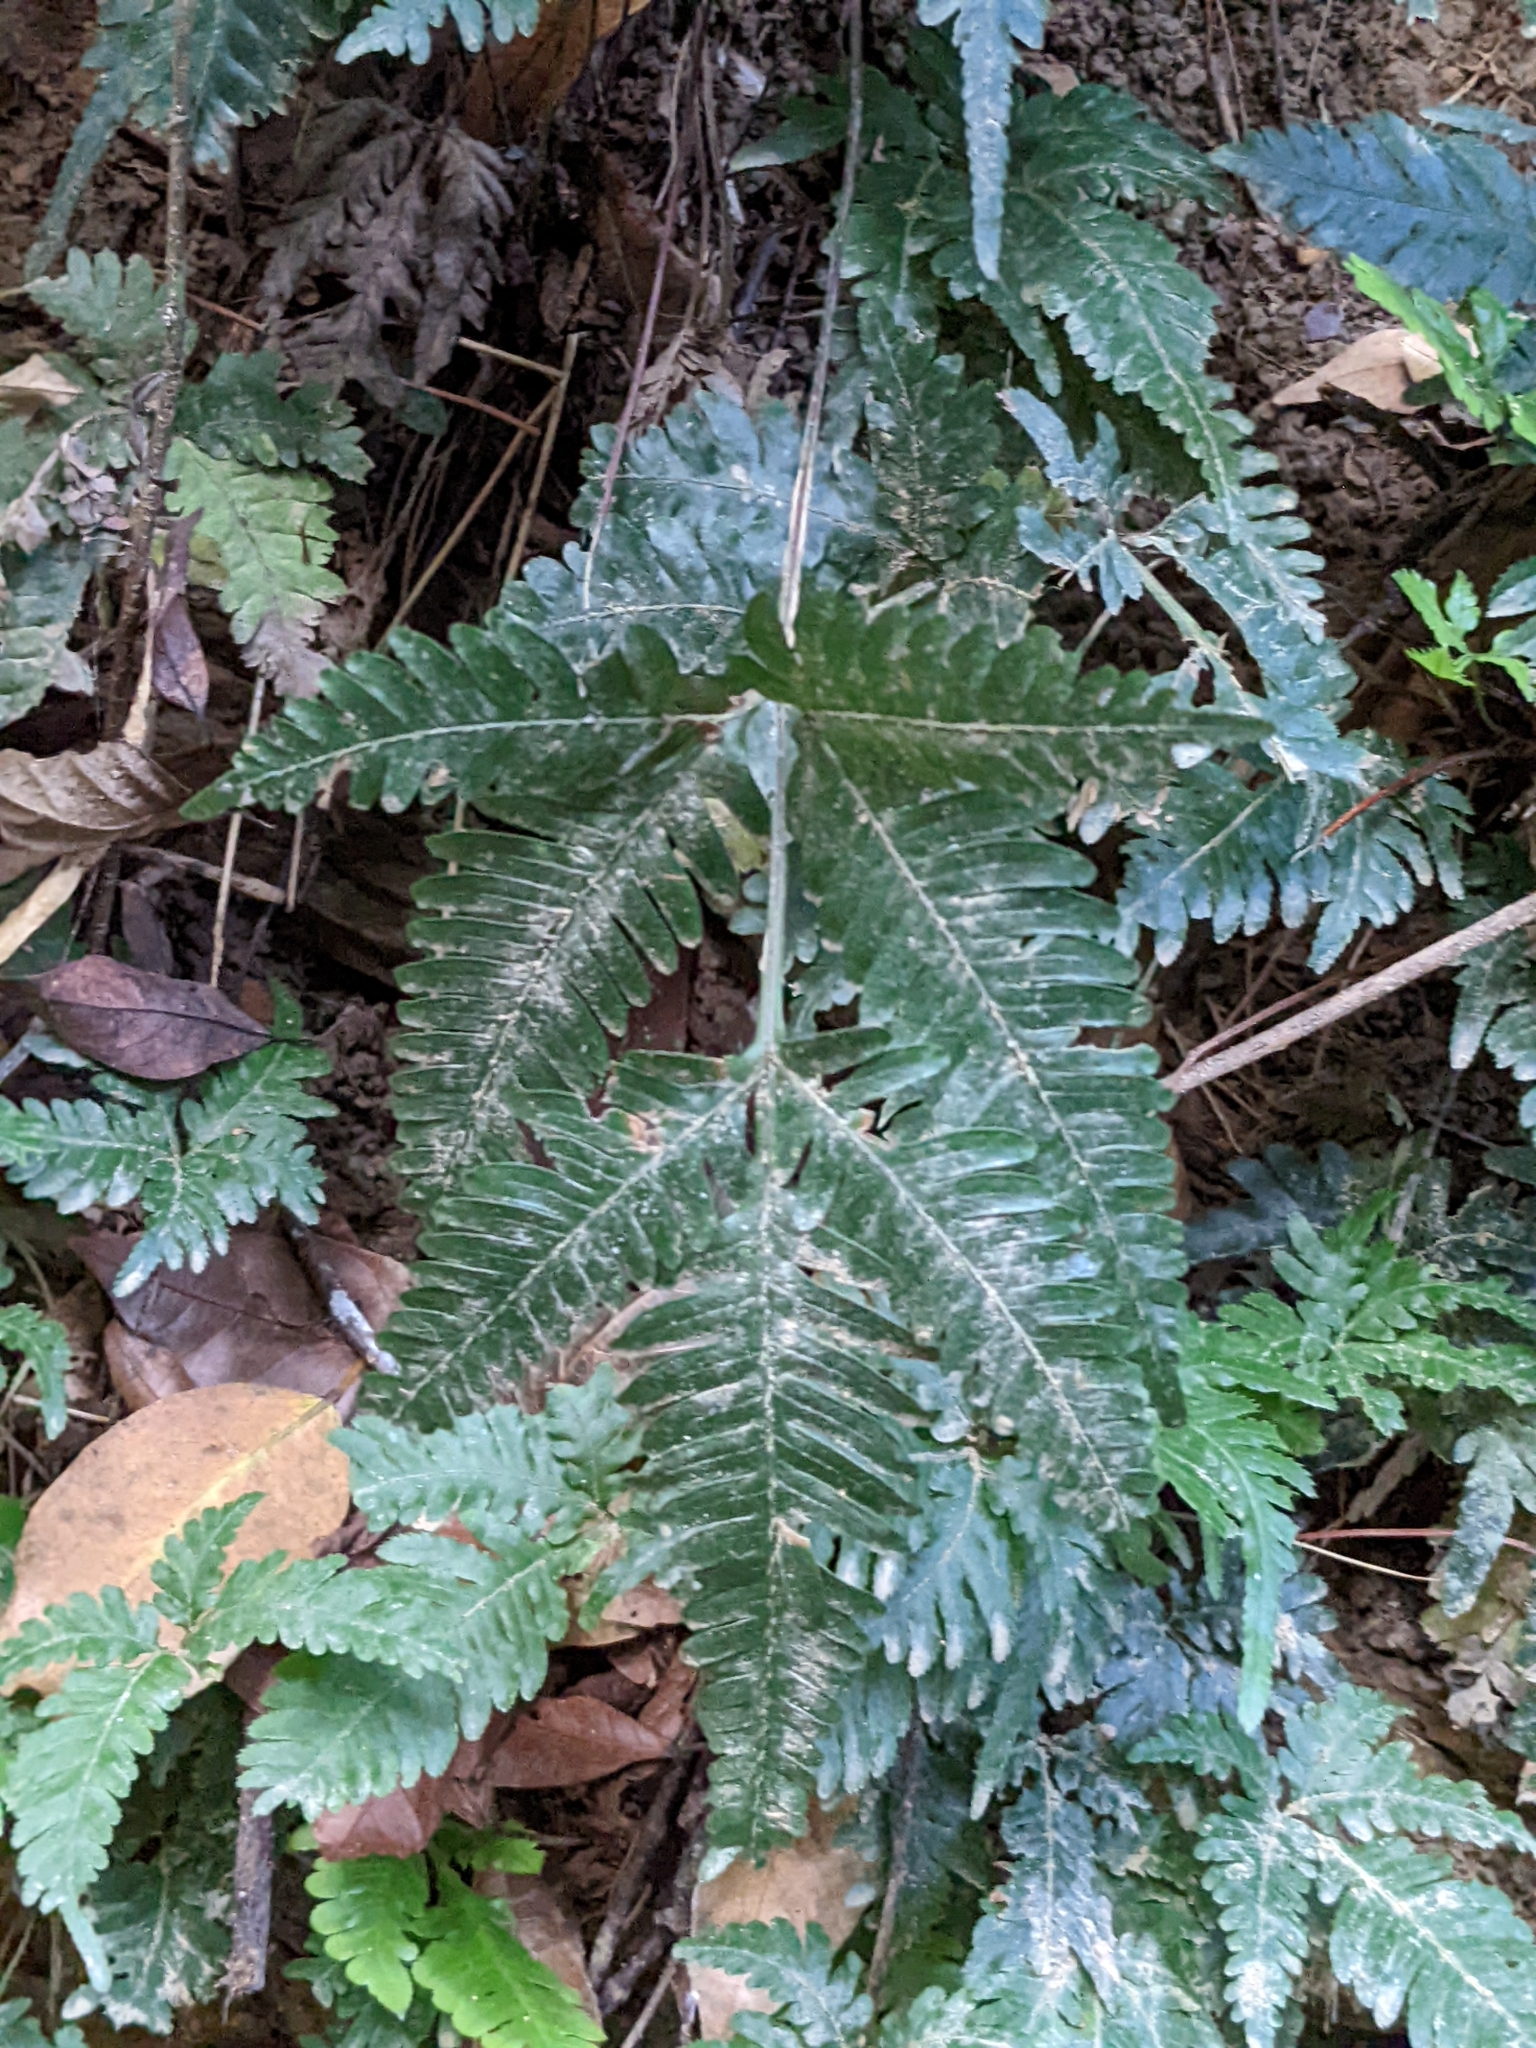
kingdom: Plantae
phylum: Tracheophyta
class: Polypodiopsida
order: Polypodiales
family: Pteridaceae
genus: Pteris
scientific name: Pteris grevilleana
